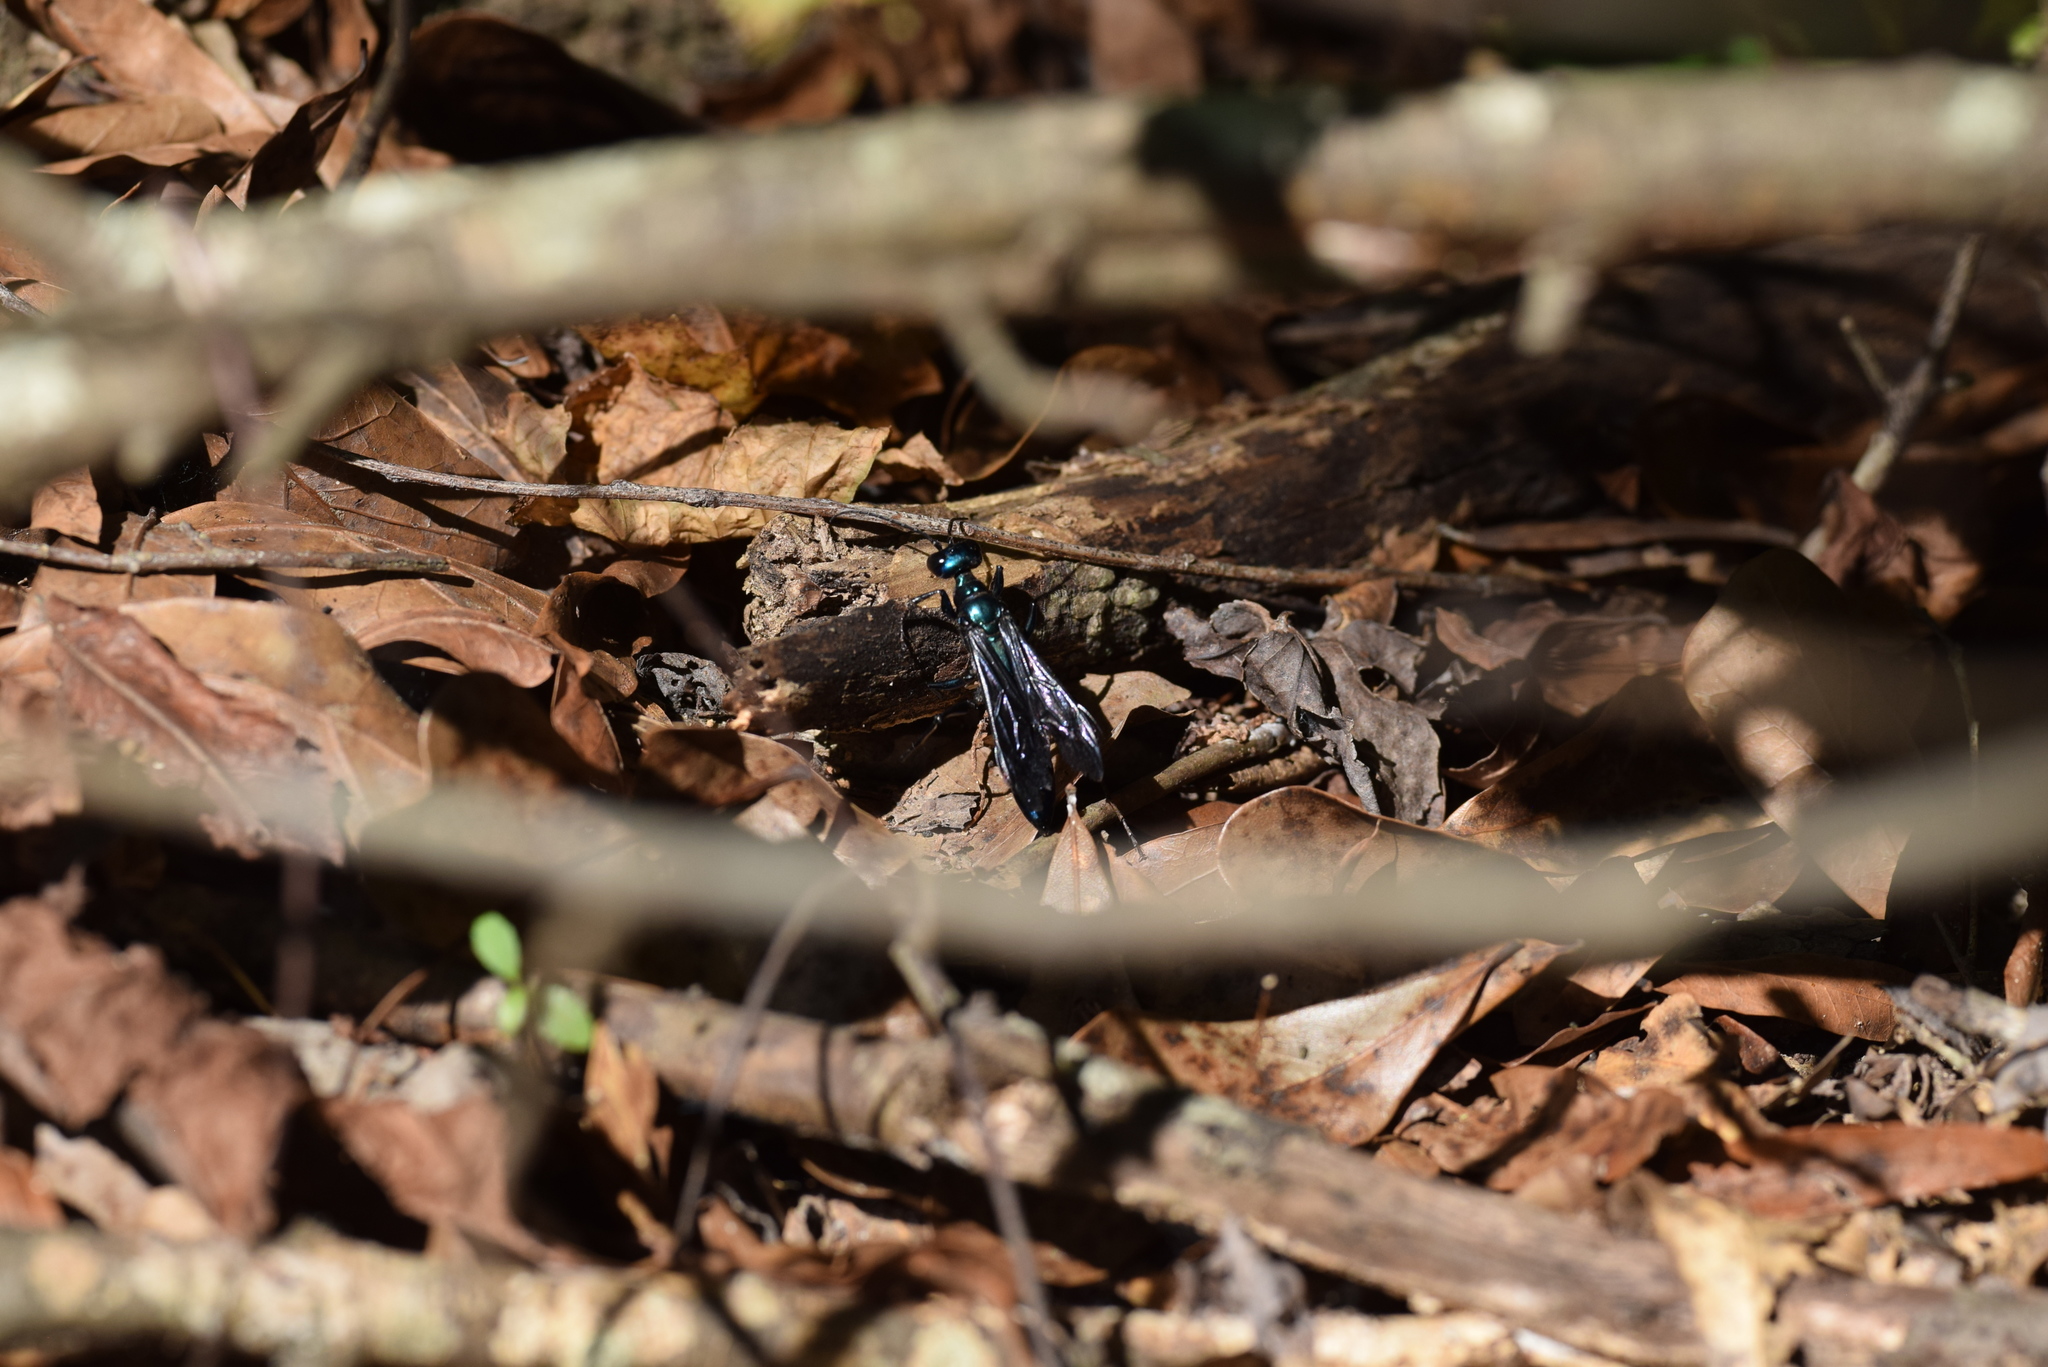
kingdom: Animalia
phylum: Arthropoda
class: Insecta
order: Hymenoptera
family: Sphecidae
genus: Chlorion
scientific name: Chlorion aerarium
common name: Steel-blue cricket hunter
